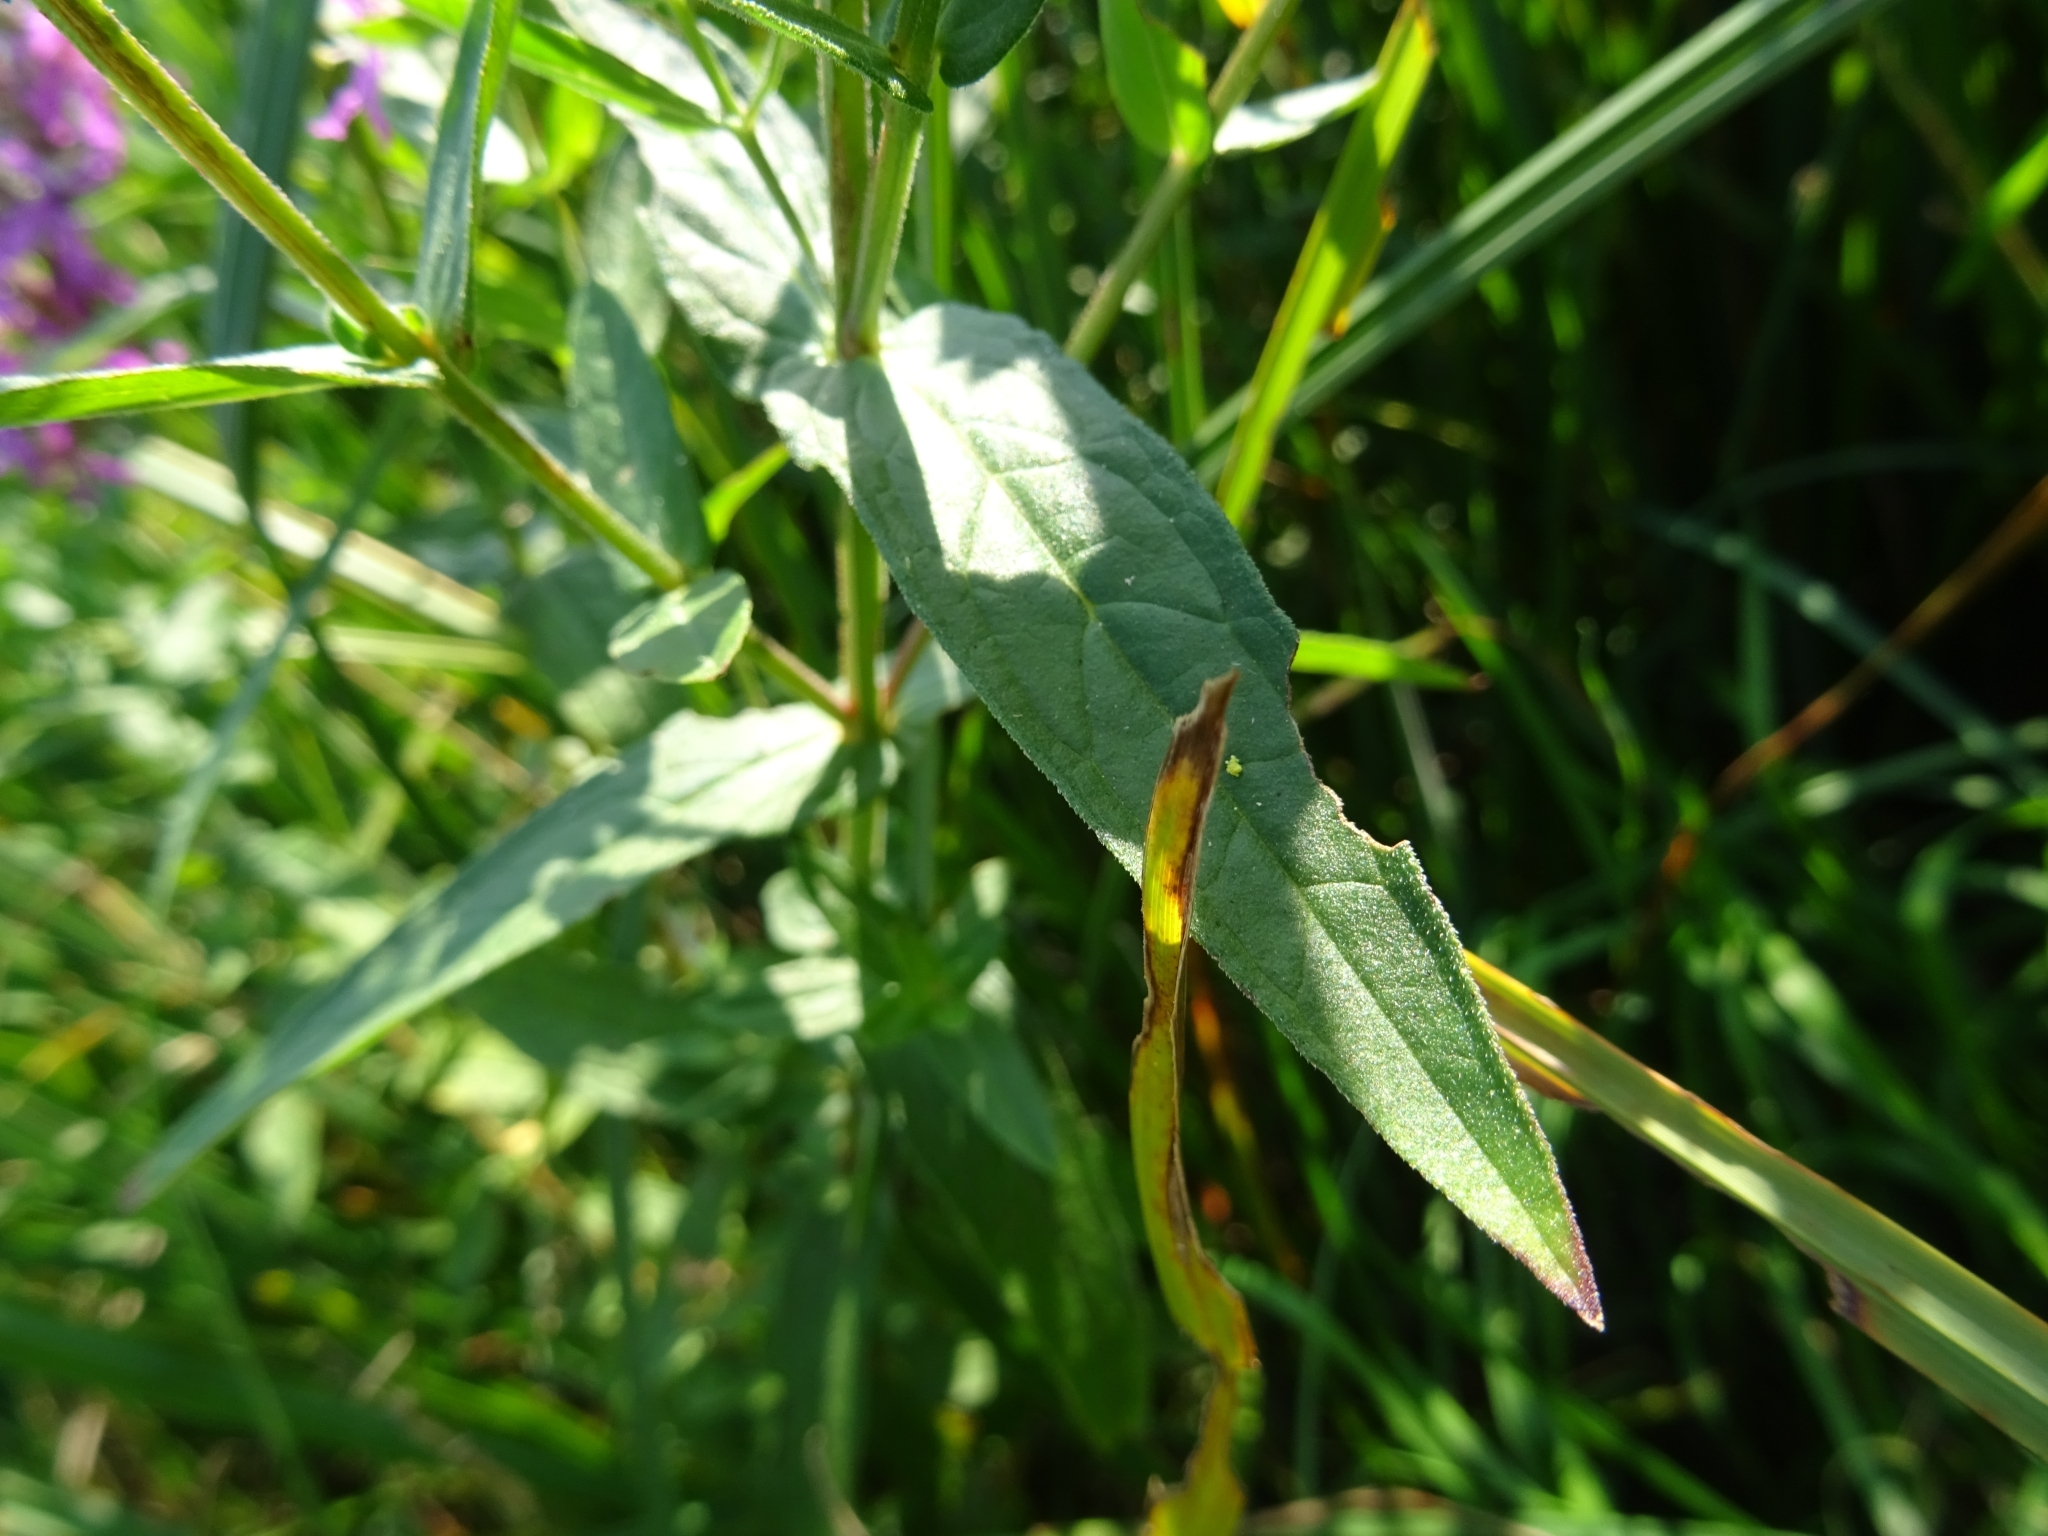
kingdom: Plantae
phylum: Tracheophyta
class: Magnoliopsida
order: Myrtales
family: Lythraceae
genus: Lythrum
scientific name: Lythrum salicaria
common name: Purple loosestrife
